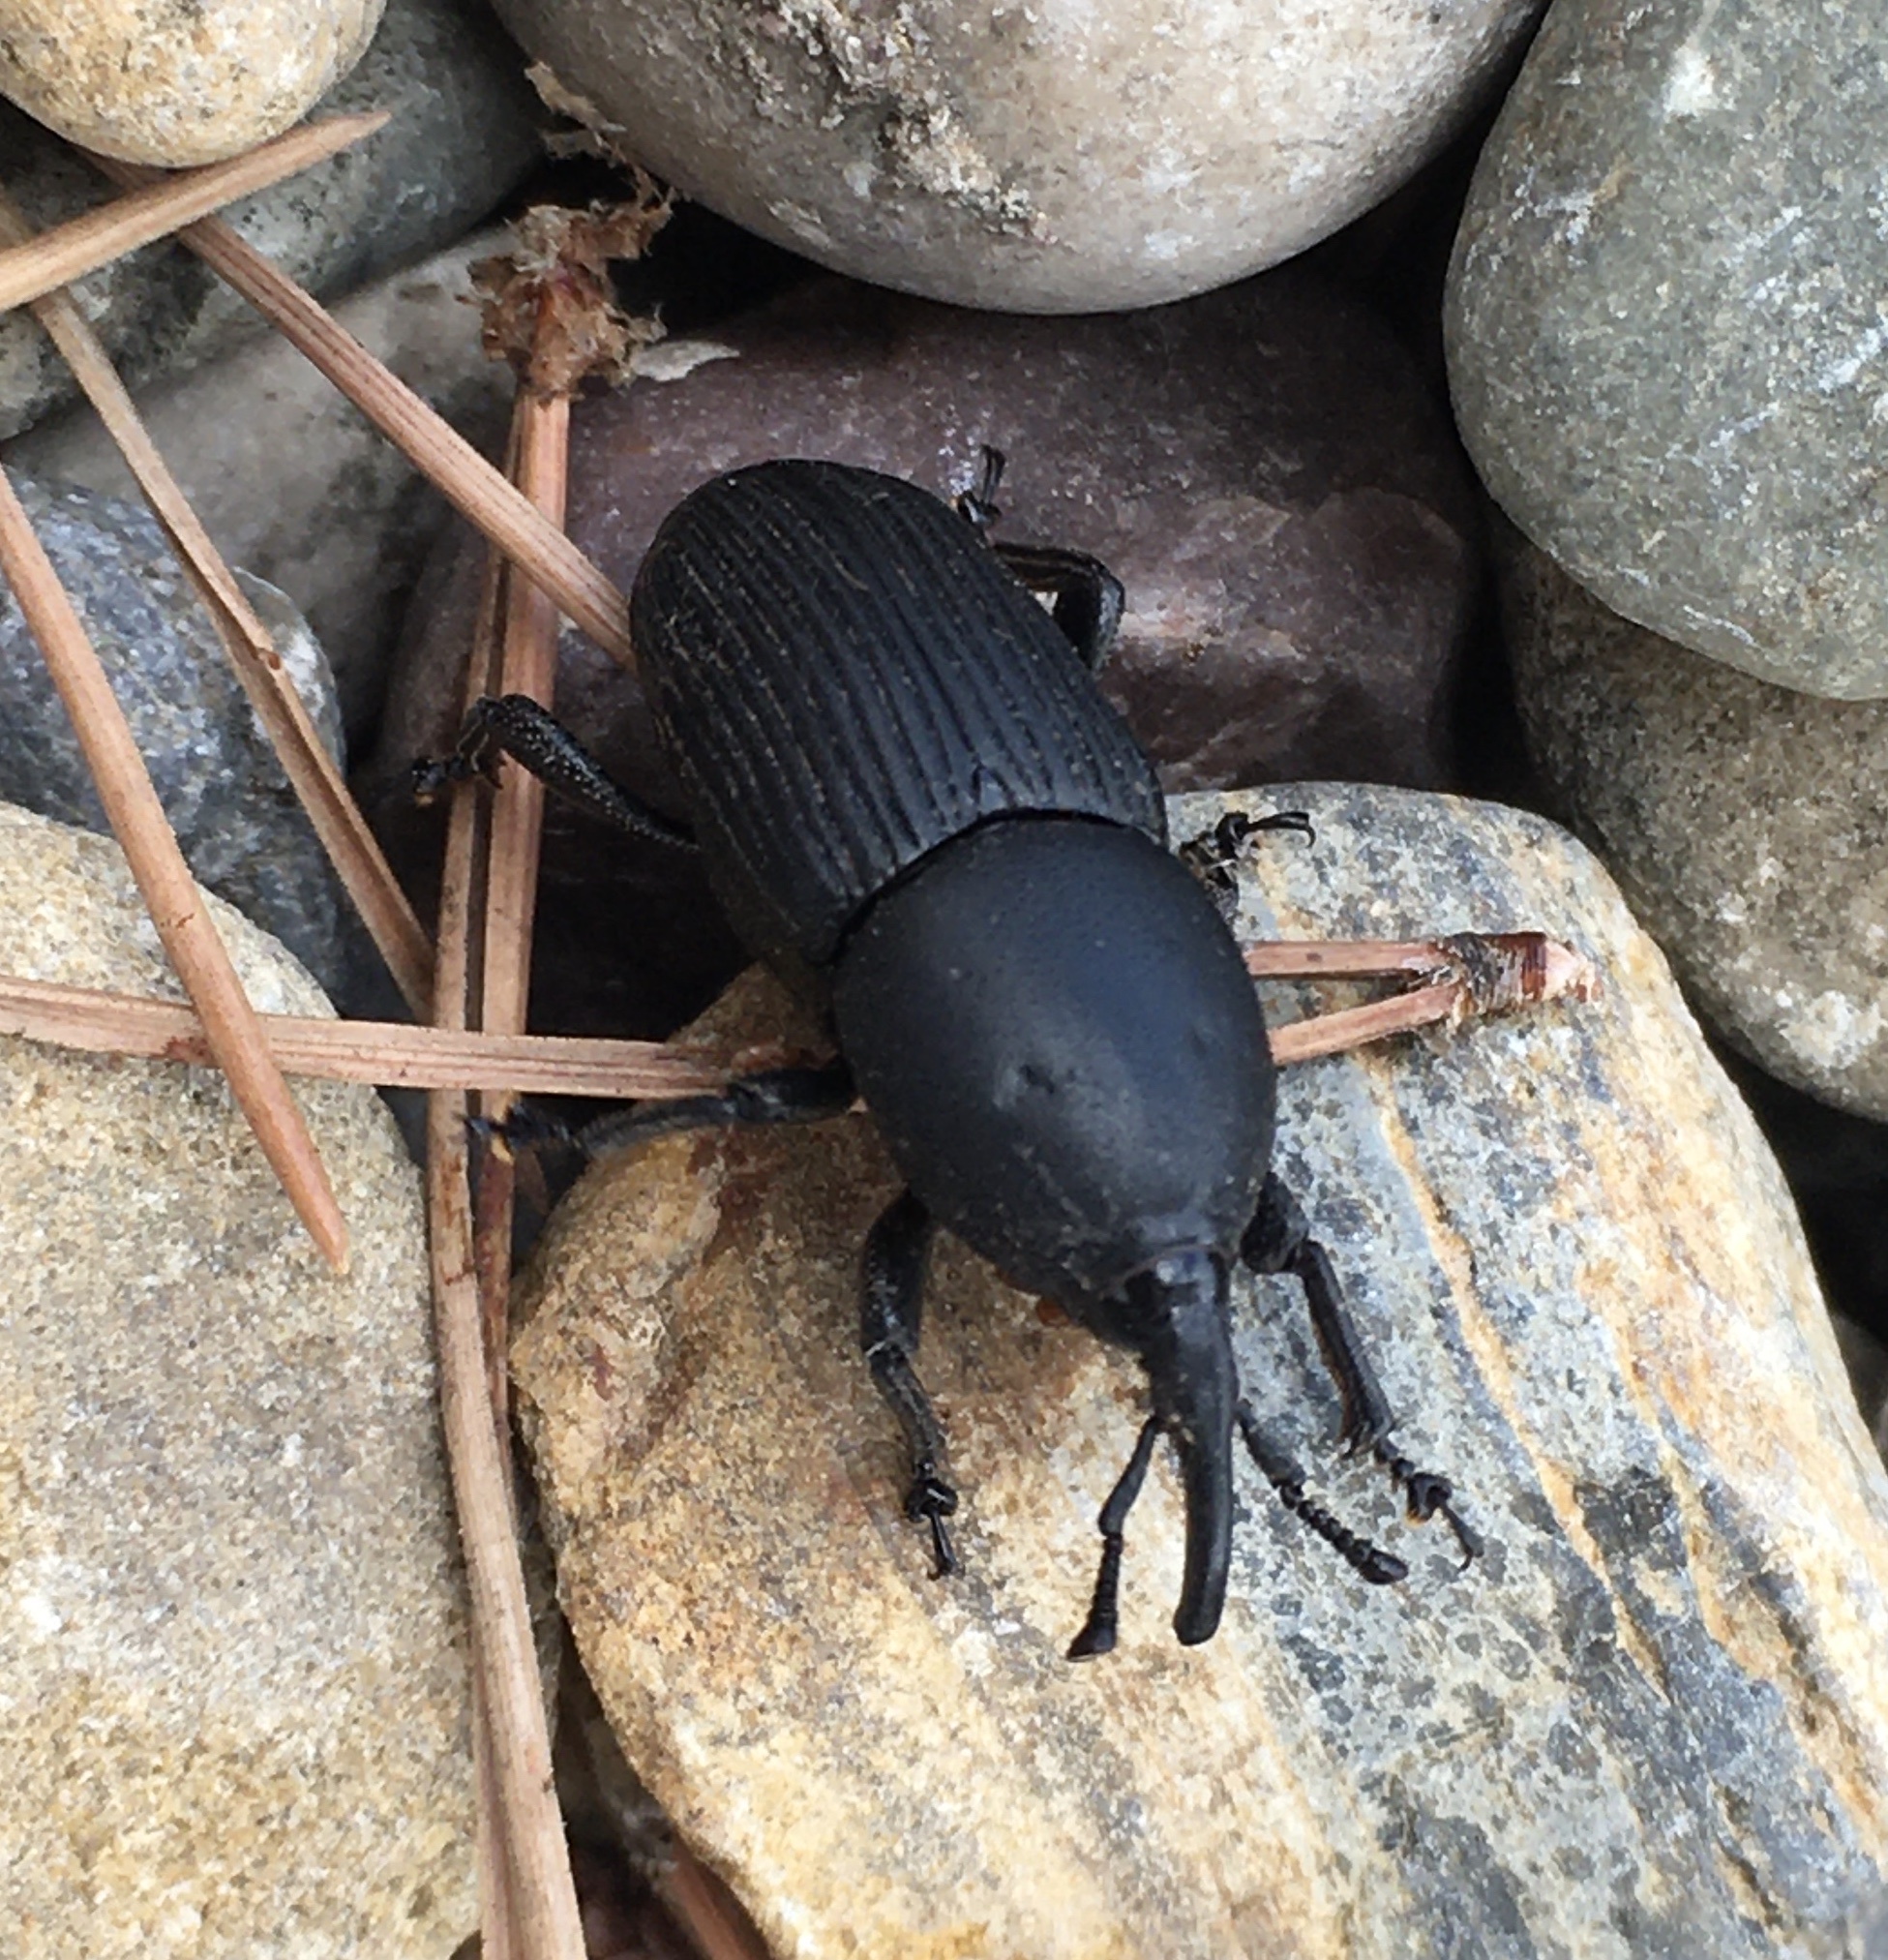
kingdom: Animalia
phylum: Arthropoda
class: Insecta
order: Coleoptera
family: Dryophthoridae
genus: Scyphophorus
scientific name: Scyphophorus acupunctatus
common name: Weevil
